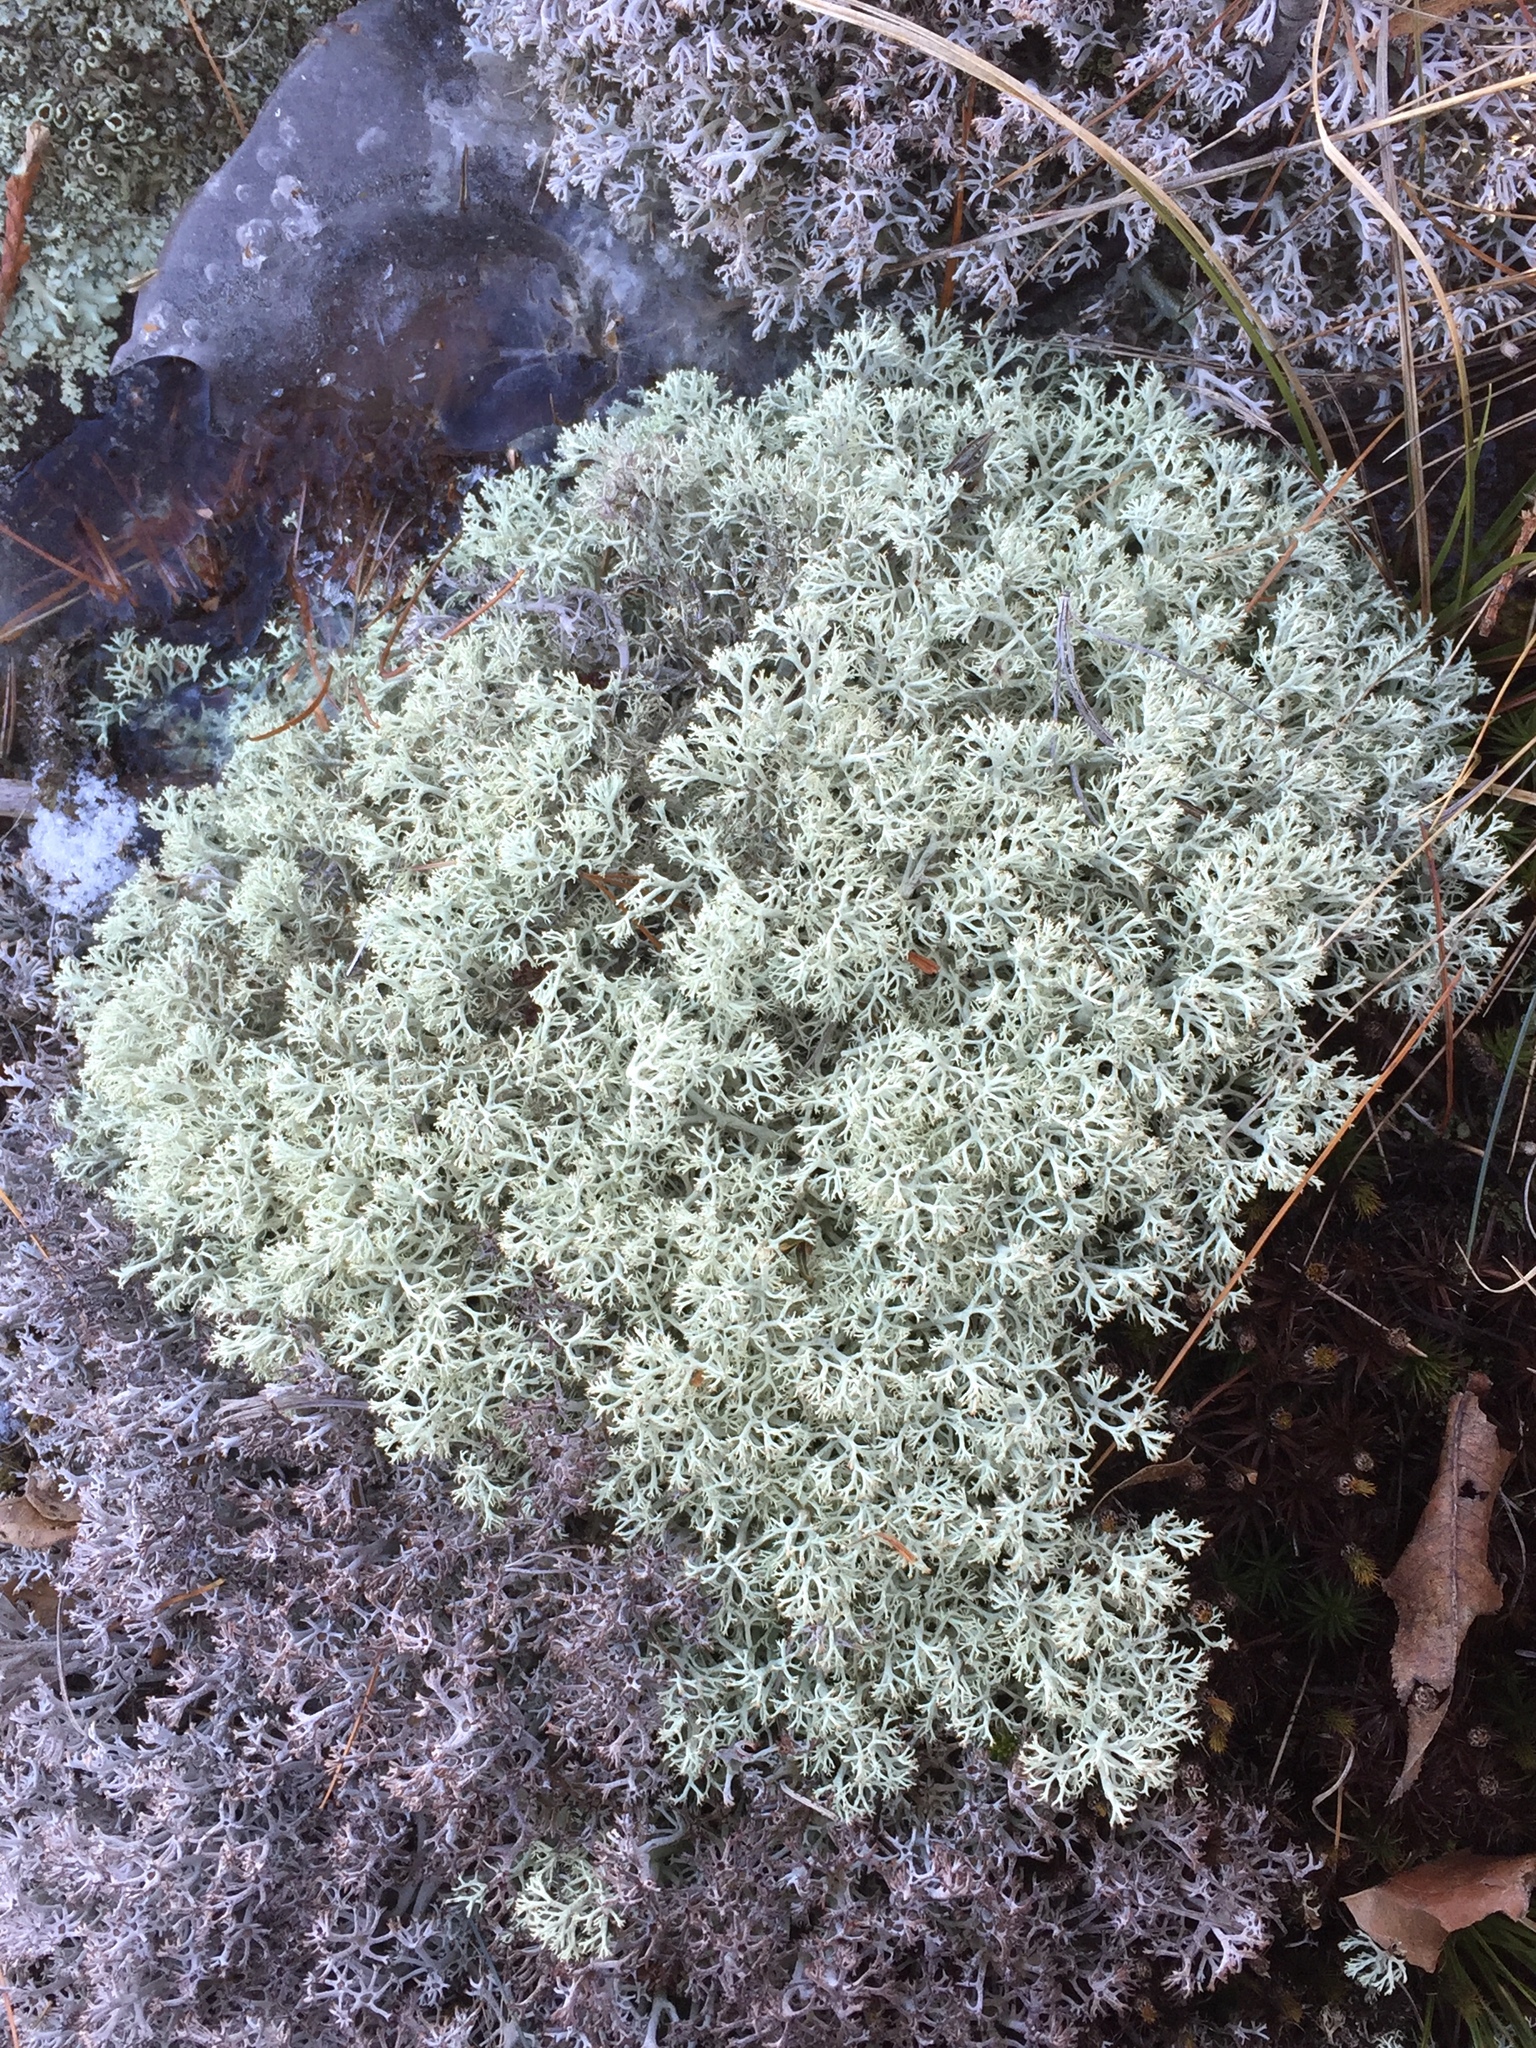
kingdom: Fungi
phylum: Ascomycota
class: Lecanoromycetes
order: Lecanorales
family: Cladoniaceae
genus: Cladonia
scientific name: Cladonia mitis
